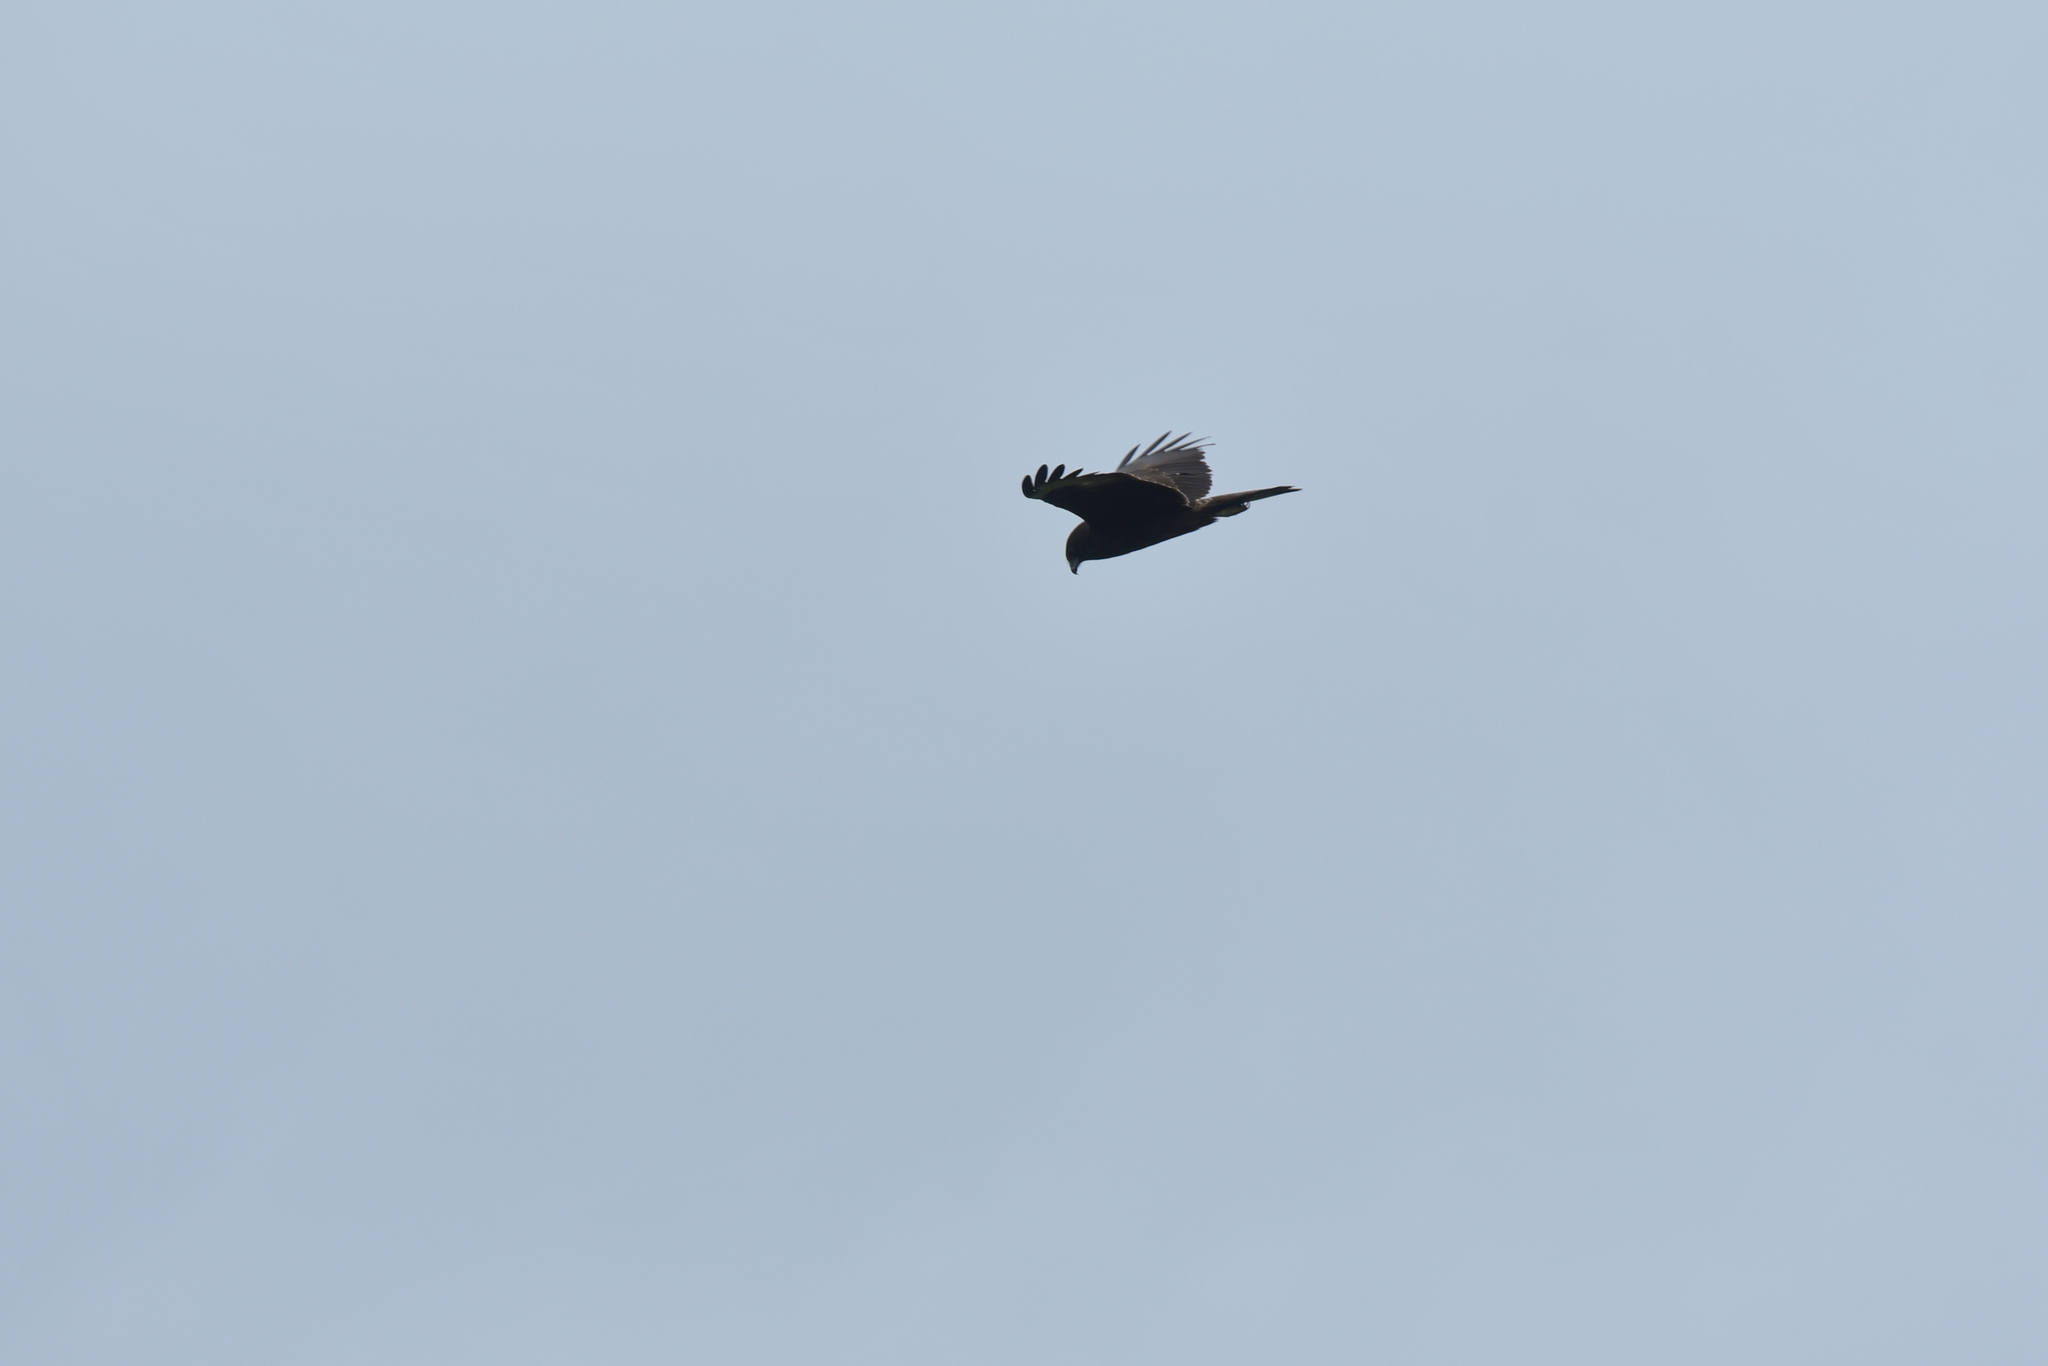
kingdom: Animalia
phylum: Chordata
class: Aves
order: Accipitriformes
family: Accipitridae
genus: Circus
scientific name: Circus approximans
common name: Swamp harrier
